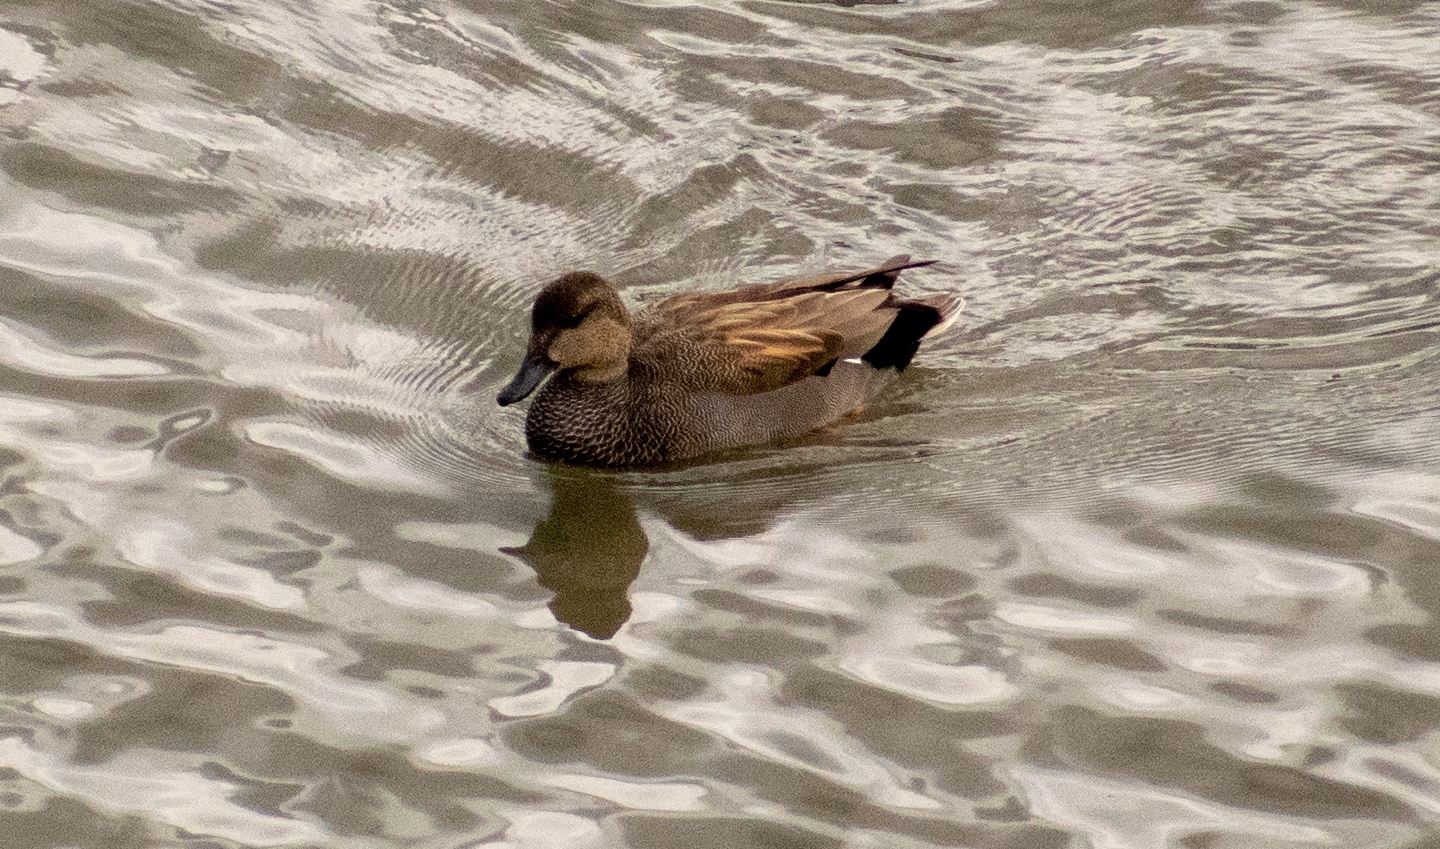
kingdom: Animalia
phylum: Chordata
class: Aves
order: Anseriformes
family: Anatidae
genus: Mareca
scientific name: Mareca strepera
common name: Gadwall
